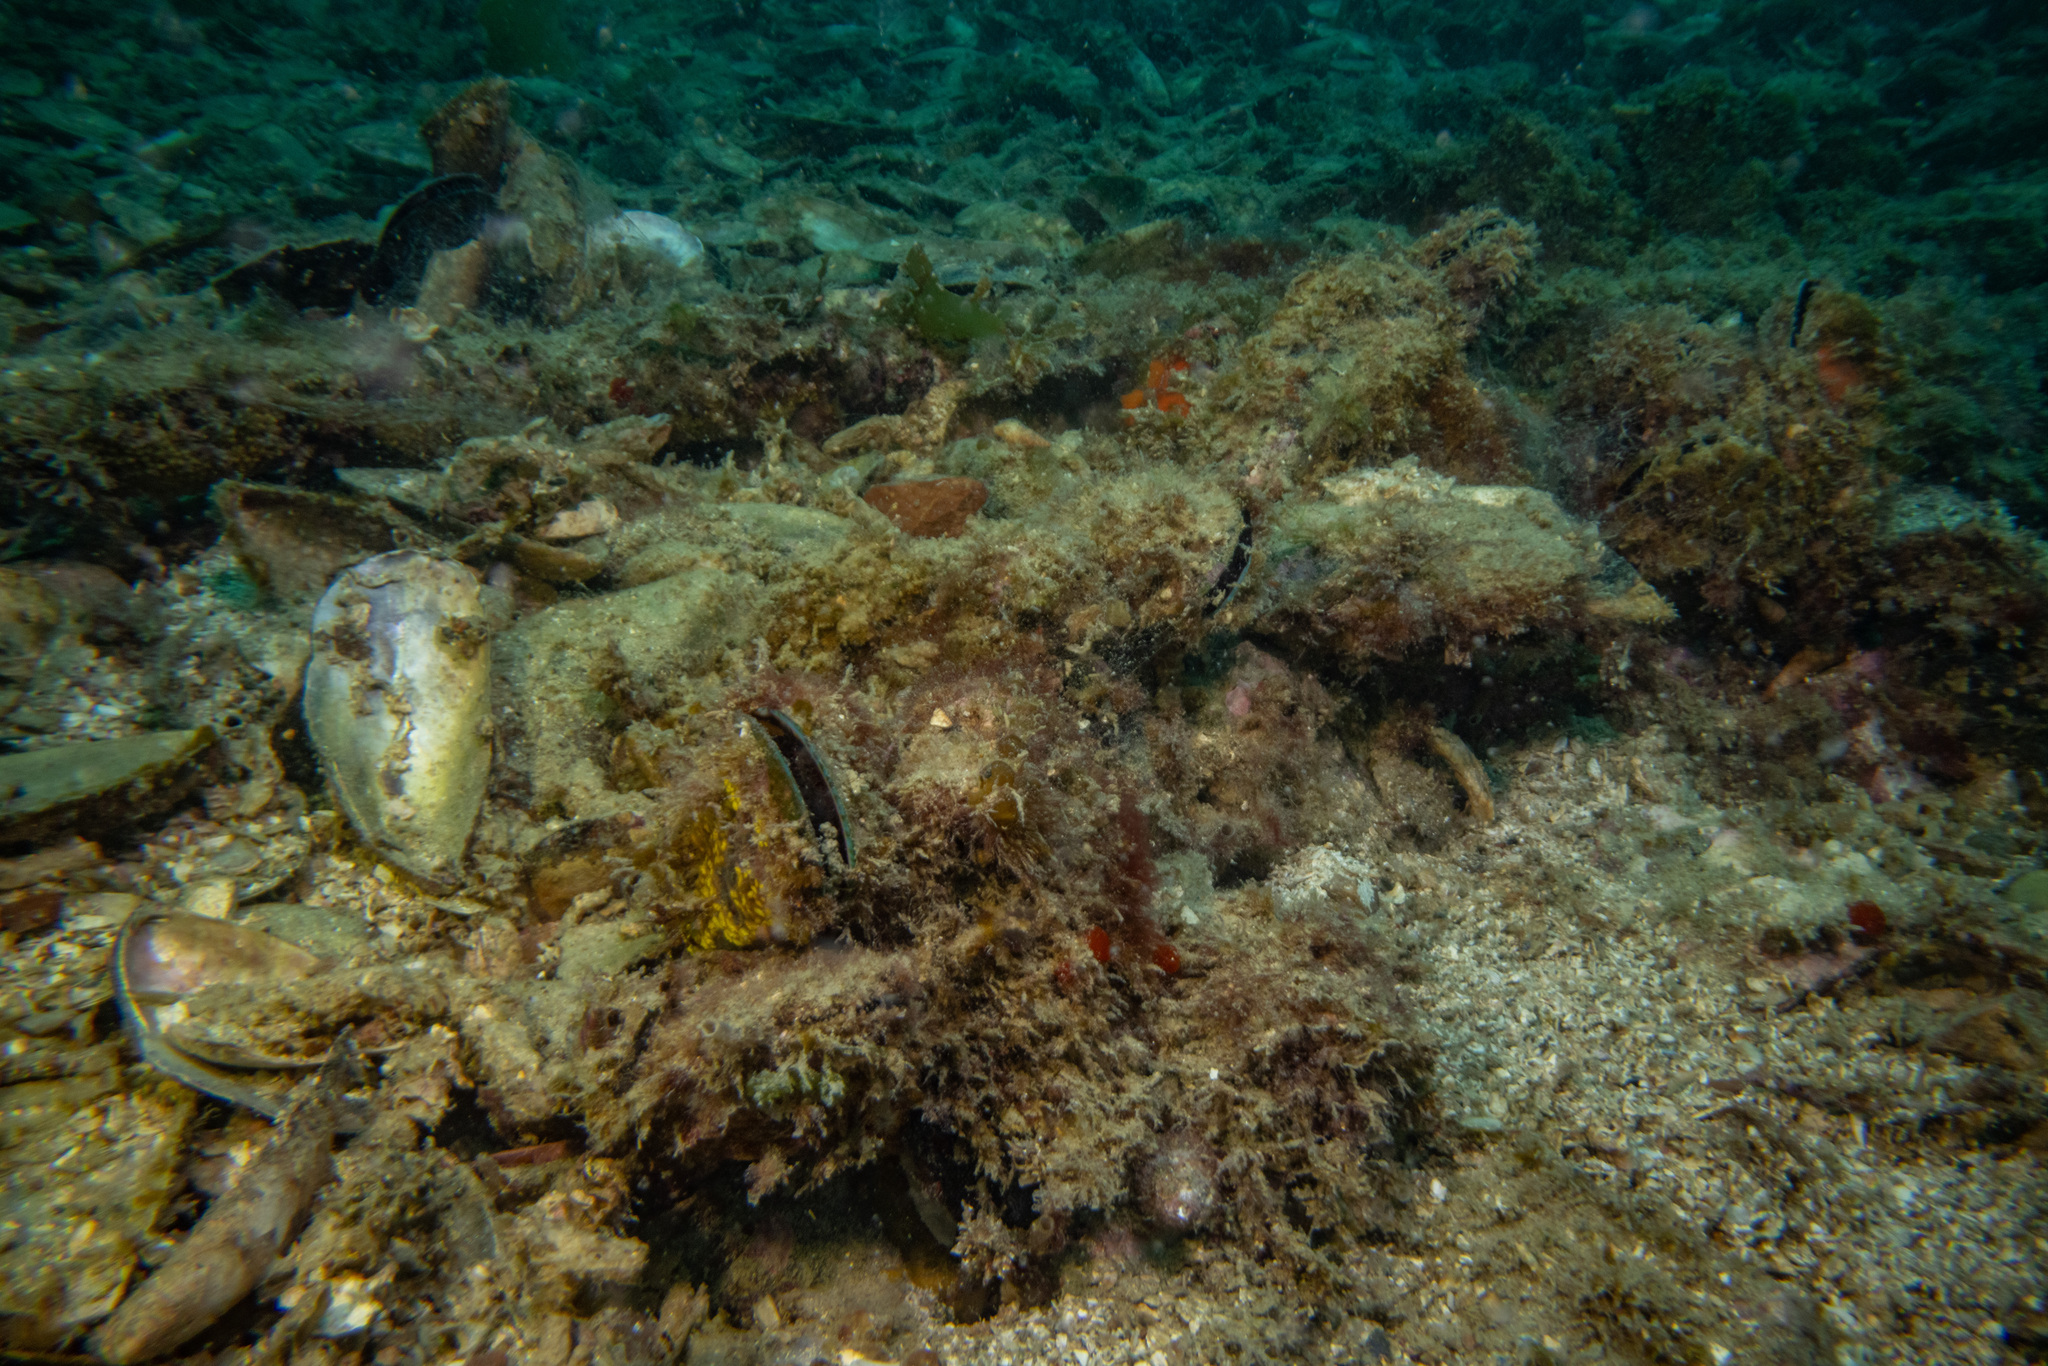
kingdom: Animalia
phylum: Mollusca
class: Bivalvia
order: Mytilida
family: Mytilidae
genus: Perna
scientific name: Perna canaliculus
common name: New zealand greenshelltm
